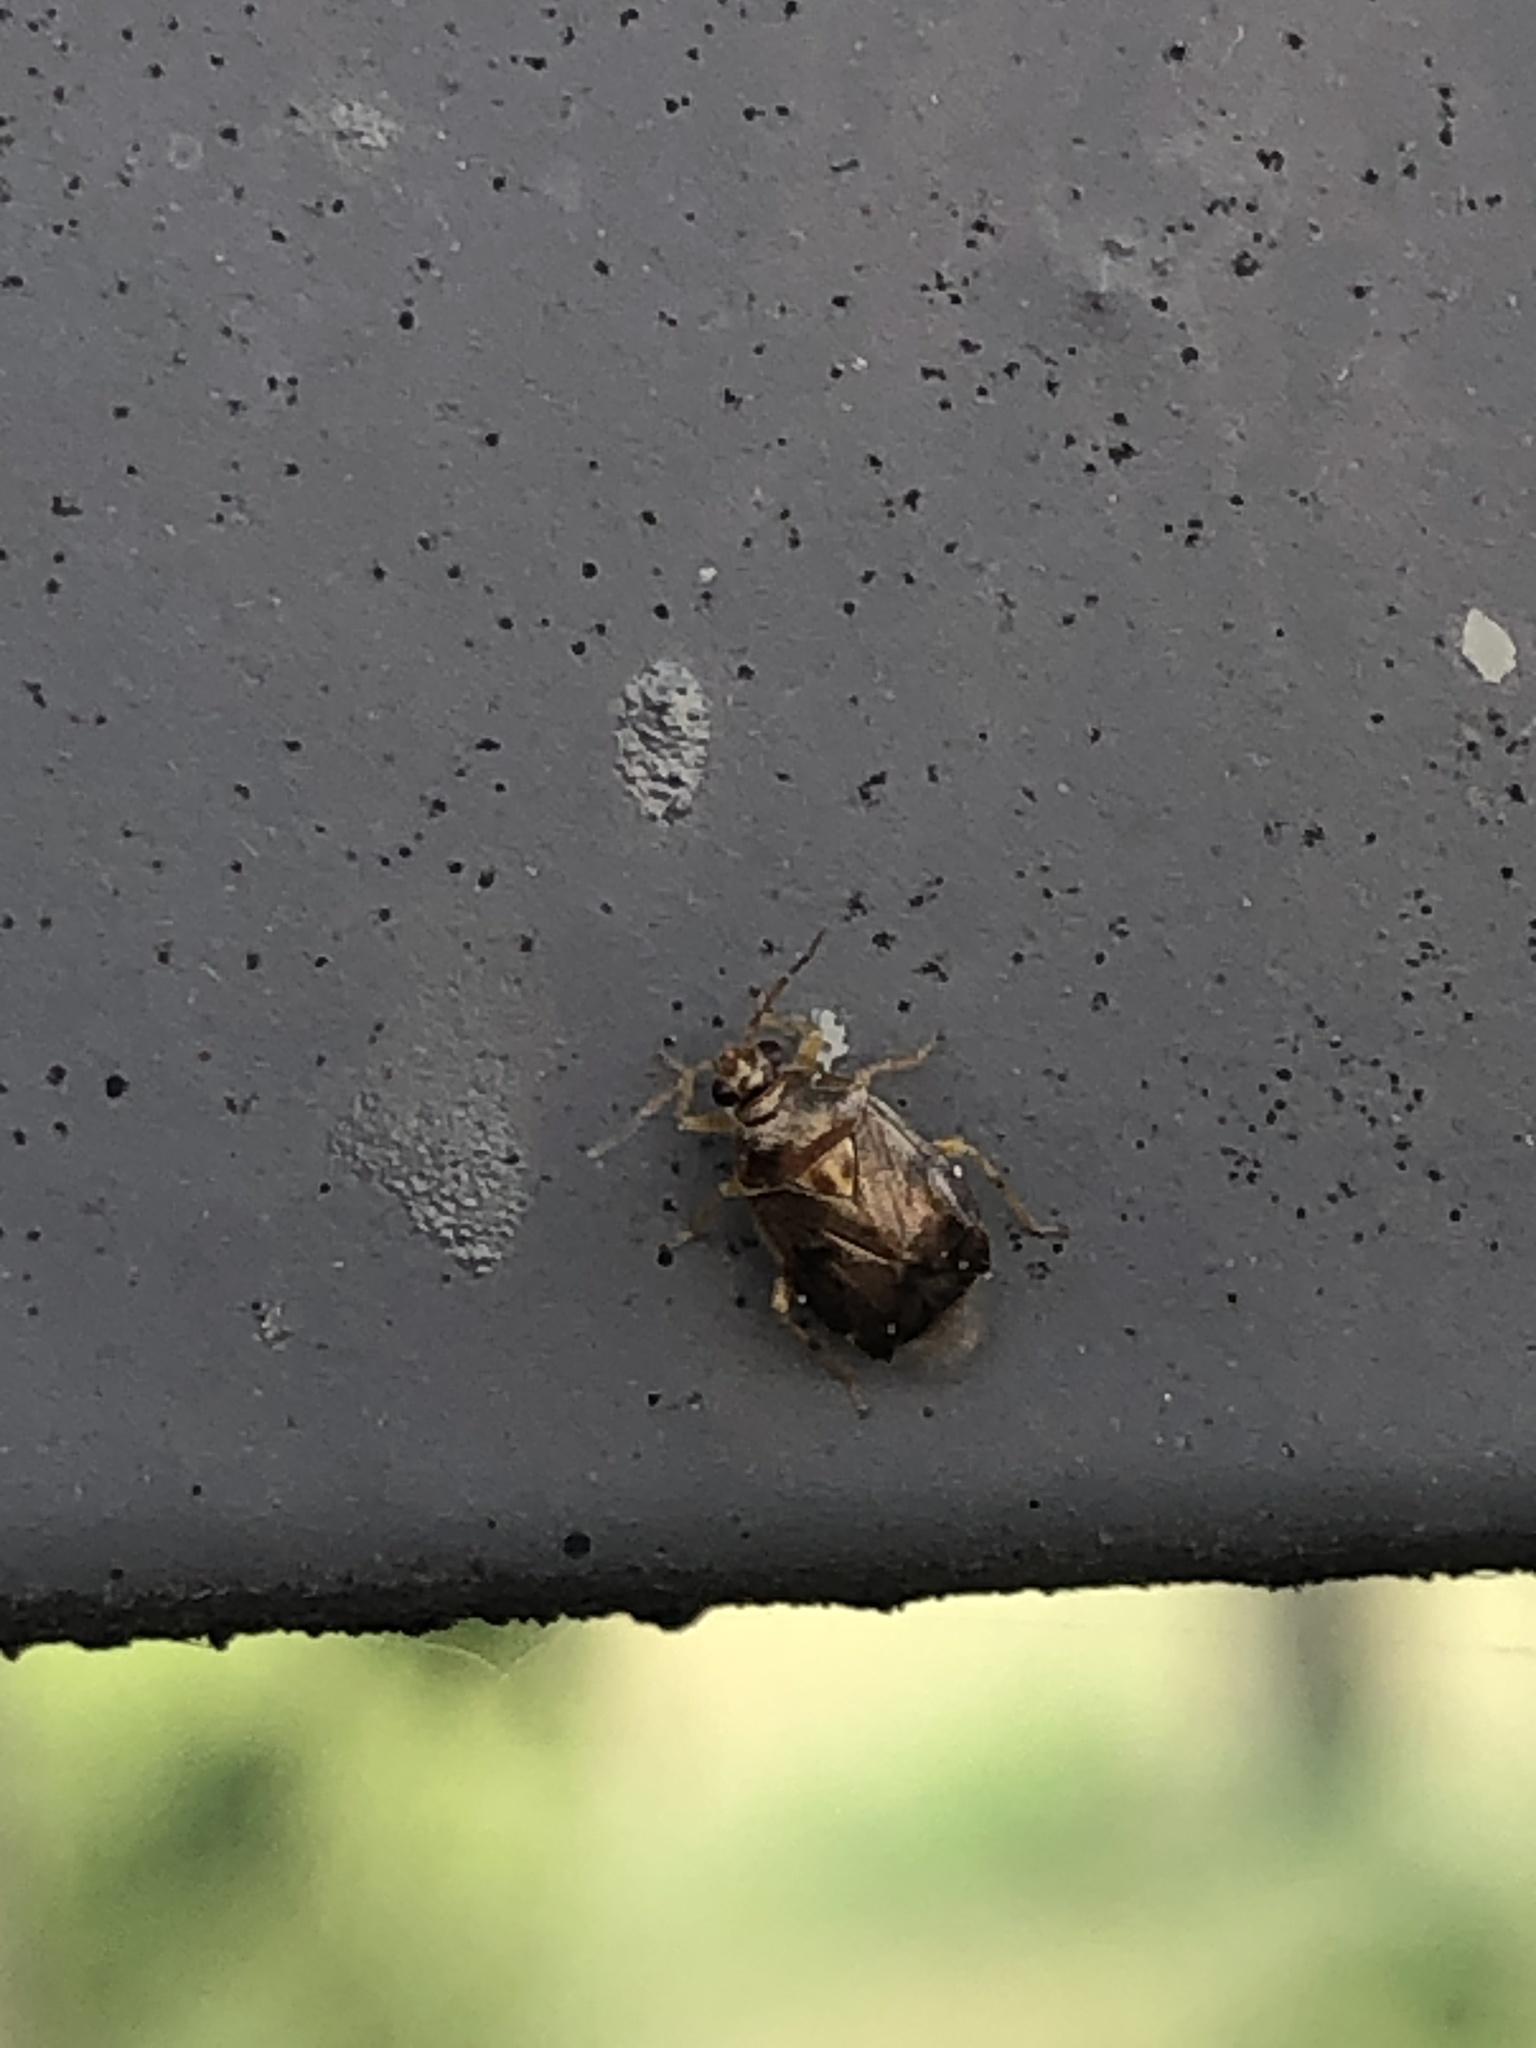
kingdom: Animalia
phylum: Arthropoda
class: Insecta
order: Hemiptera
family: Miridae
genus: Deraeocoris
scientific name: Deraeocoris lutescens
